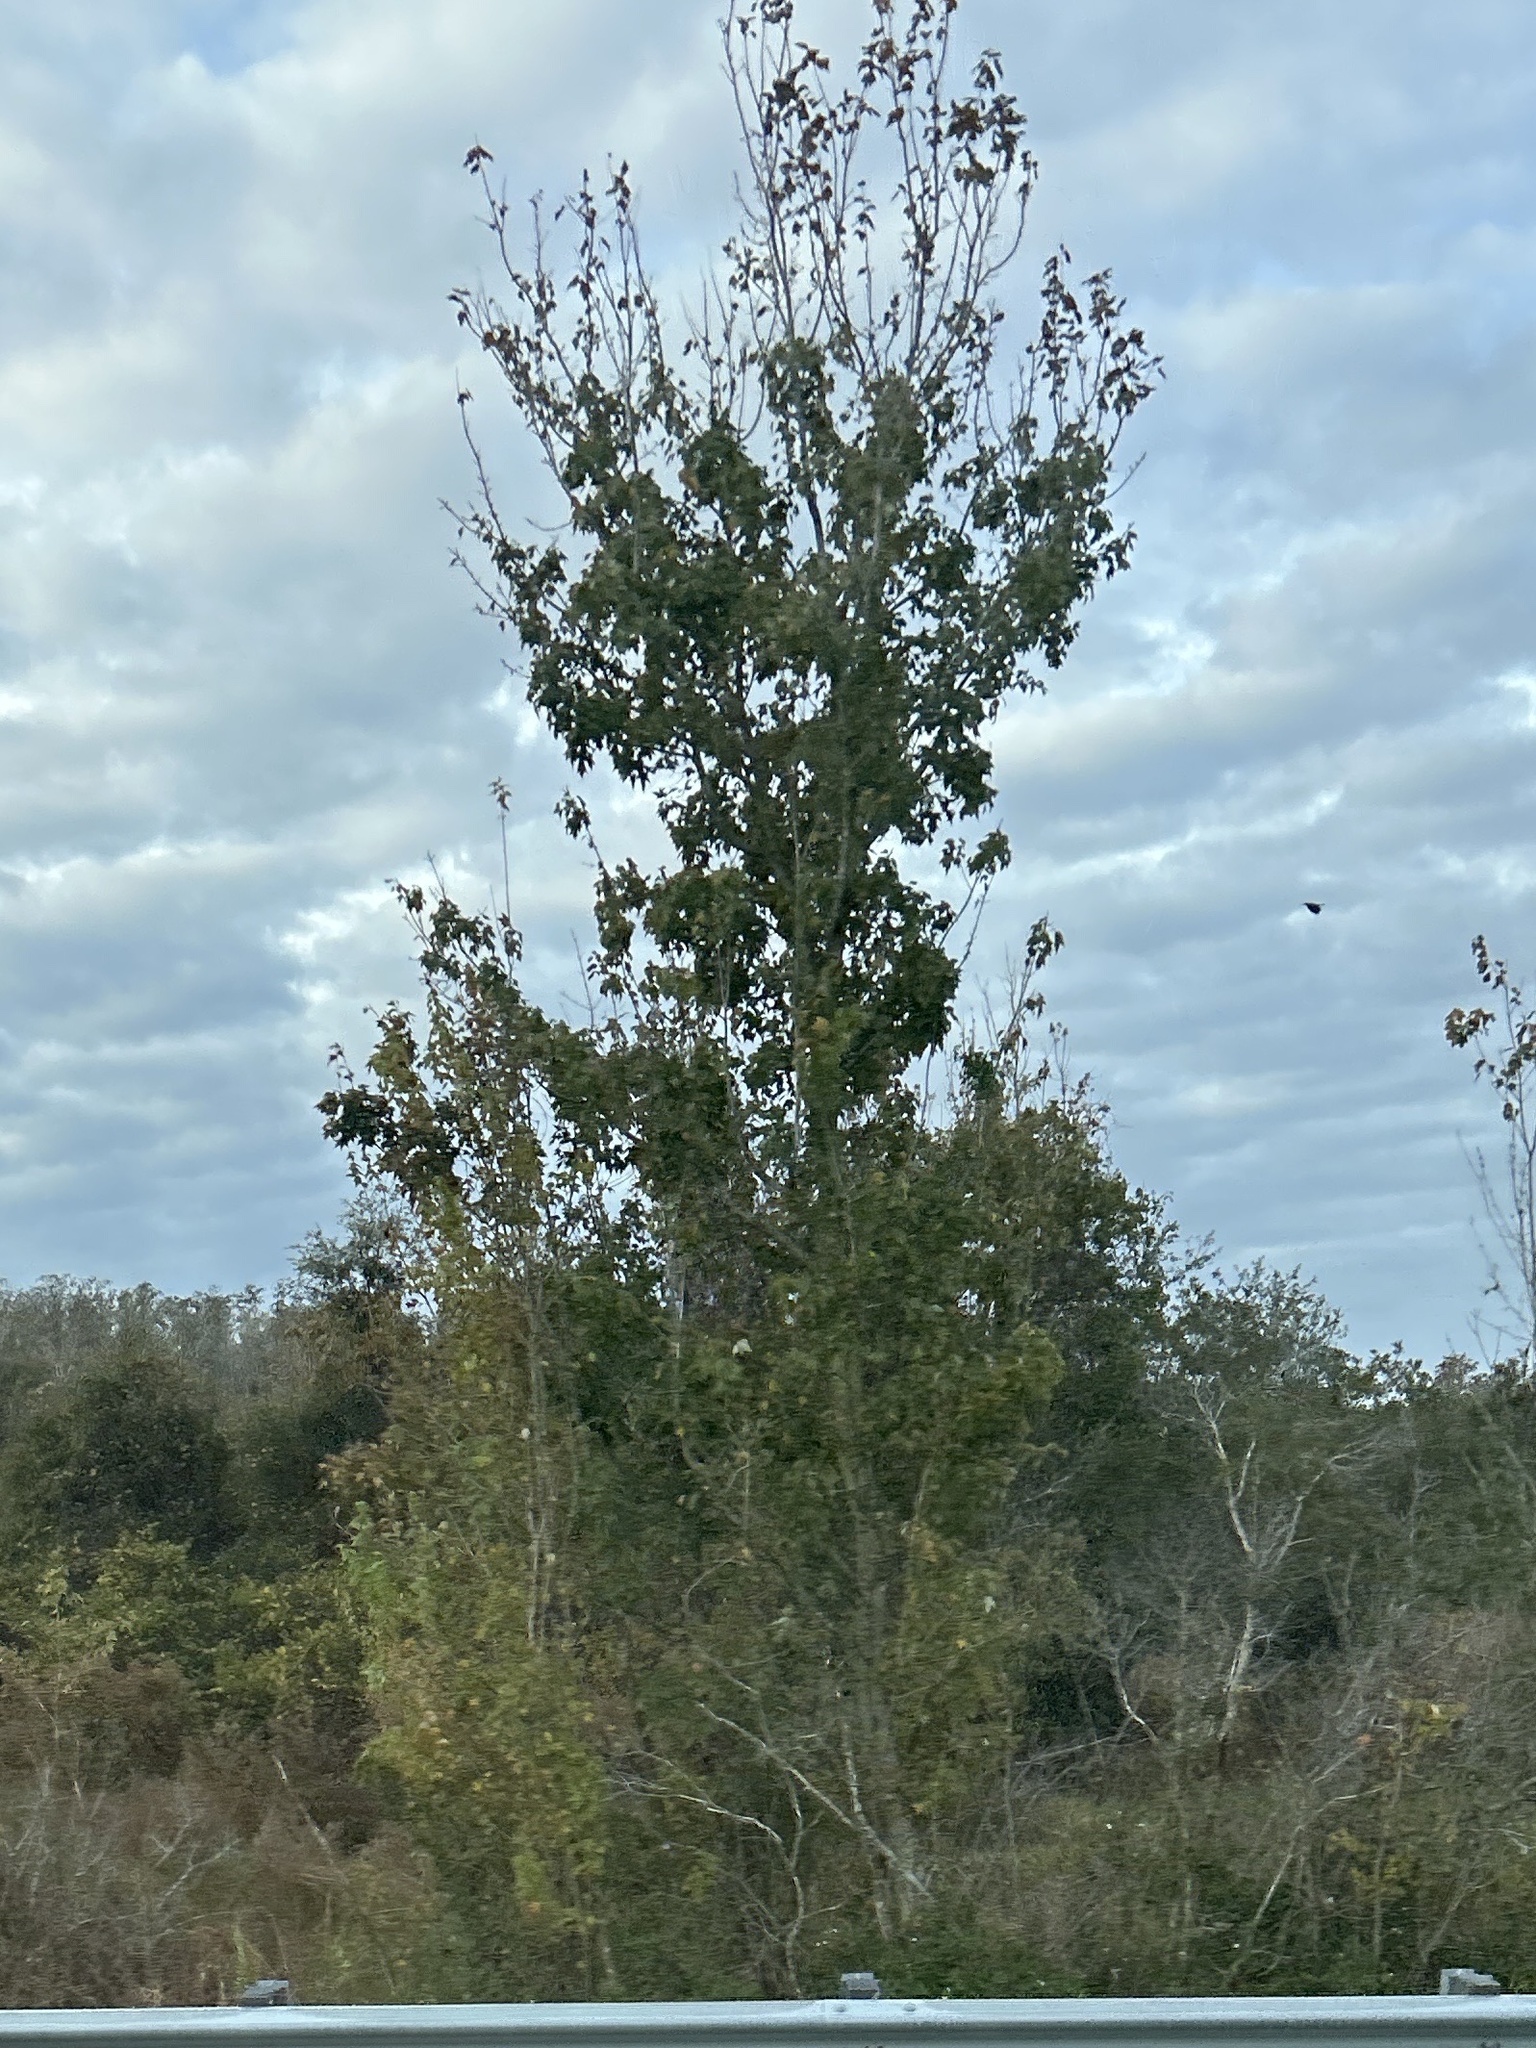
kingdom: Plantae
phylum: Tracheophyta
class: Magnoliopsida
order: Sapindales
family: Sapindaceae
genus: Acer
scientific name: Acer rubrum
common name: Red maple
